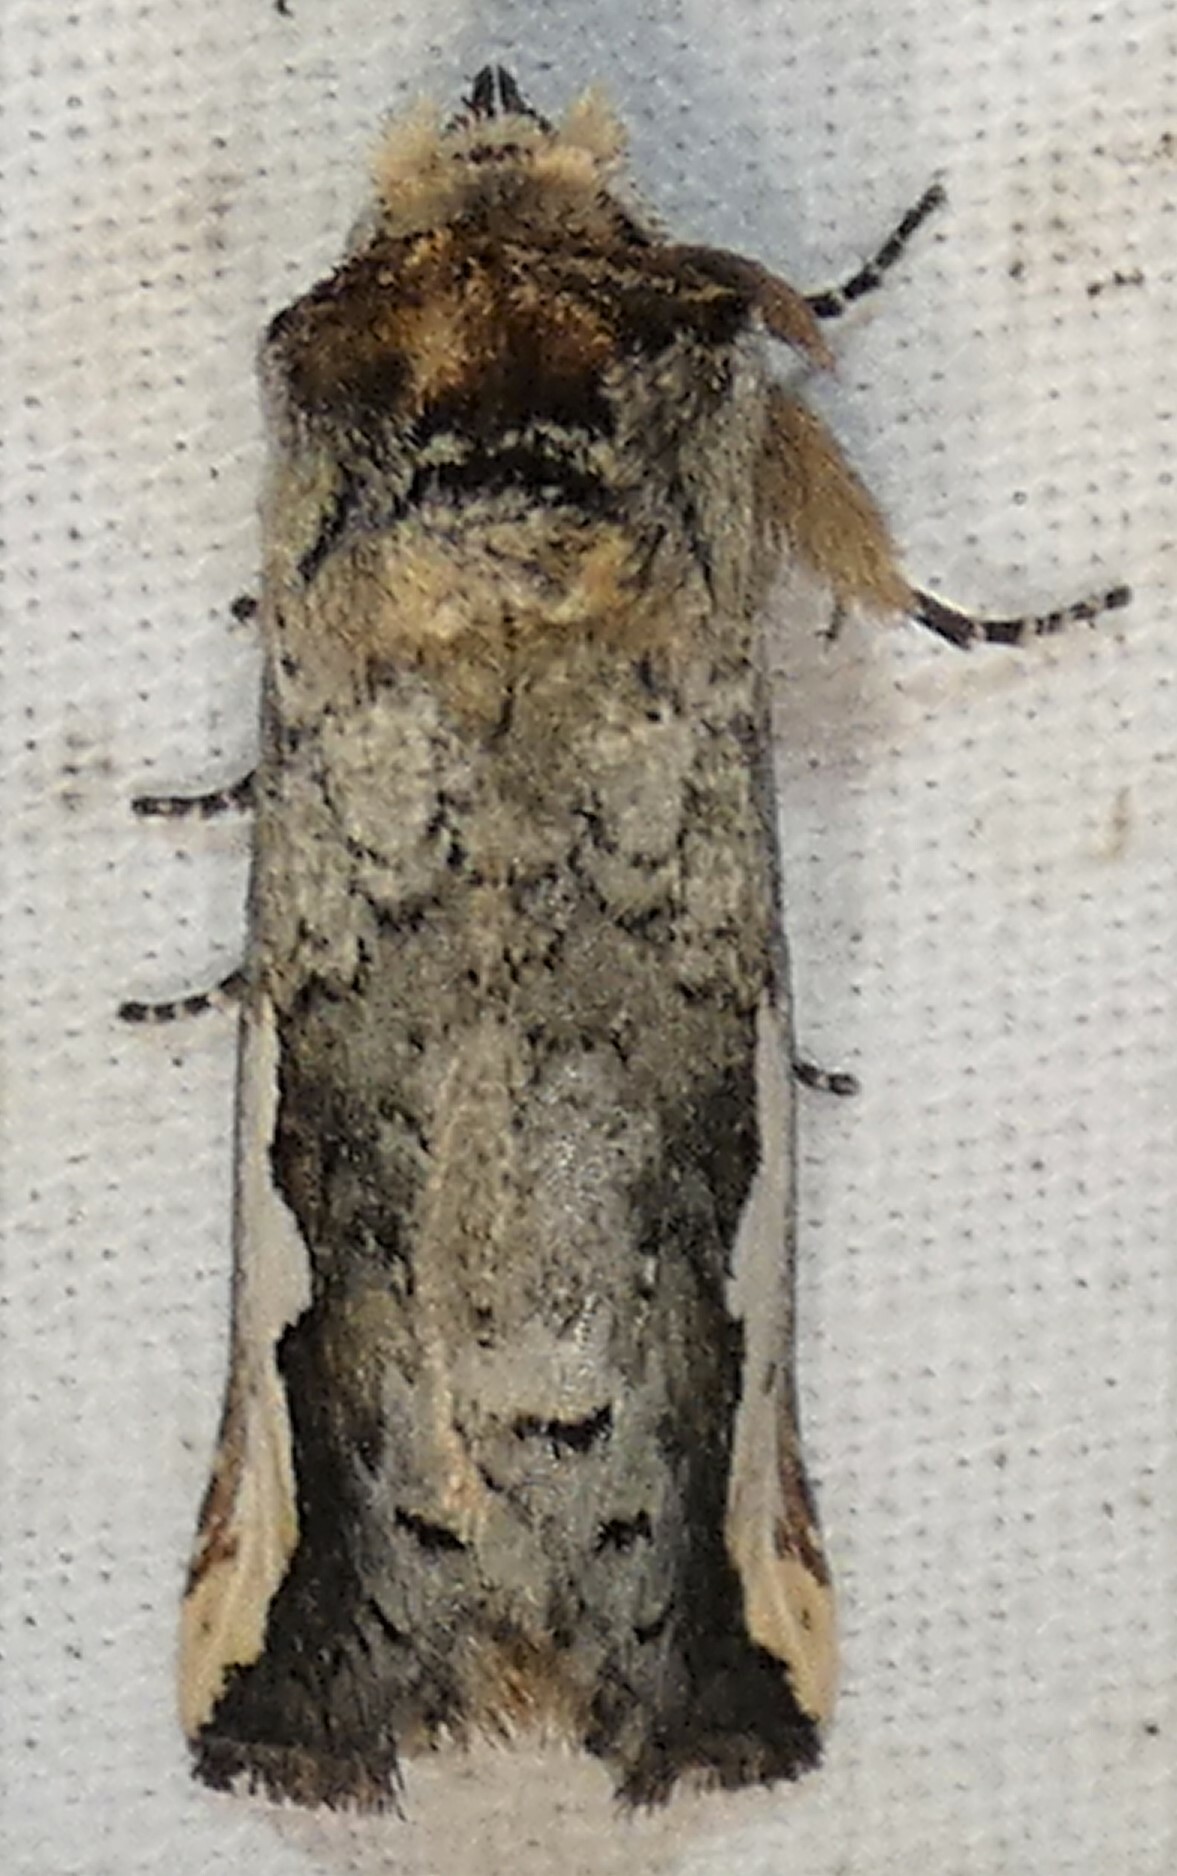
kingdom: Animalia
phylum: Arthropoda
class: Insecta
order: Lepidoptera
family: Notodontidae
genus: Symmerista
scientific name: Symmerista albifrons
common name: White-headed prominent
